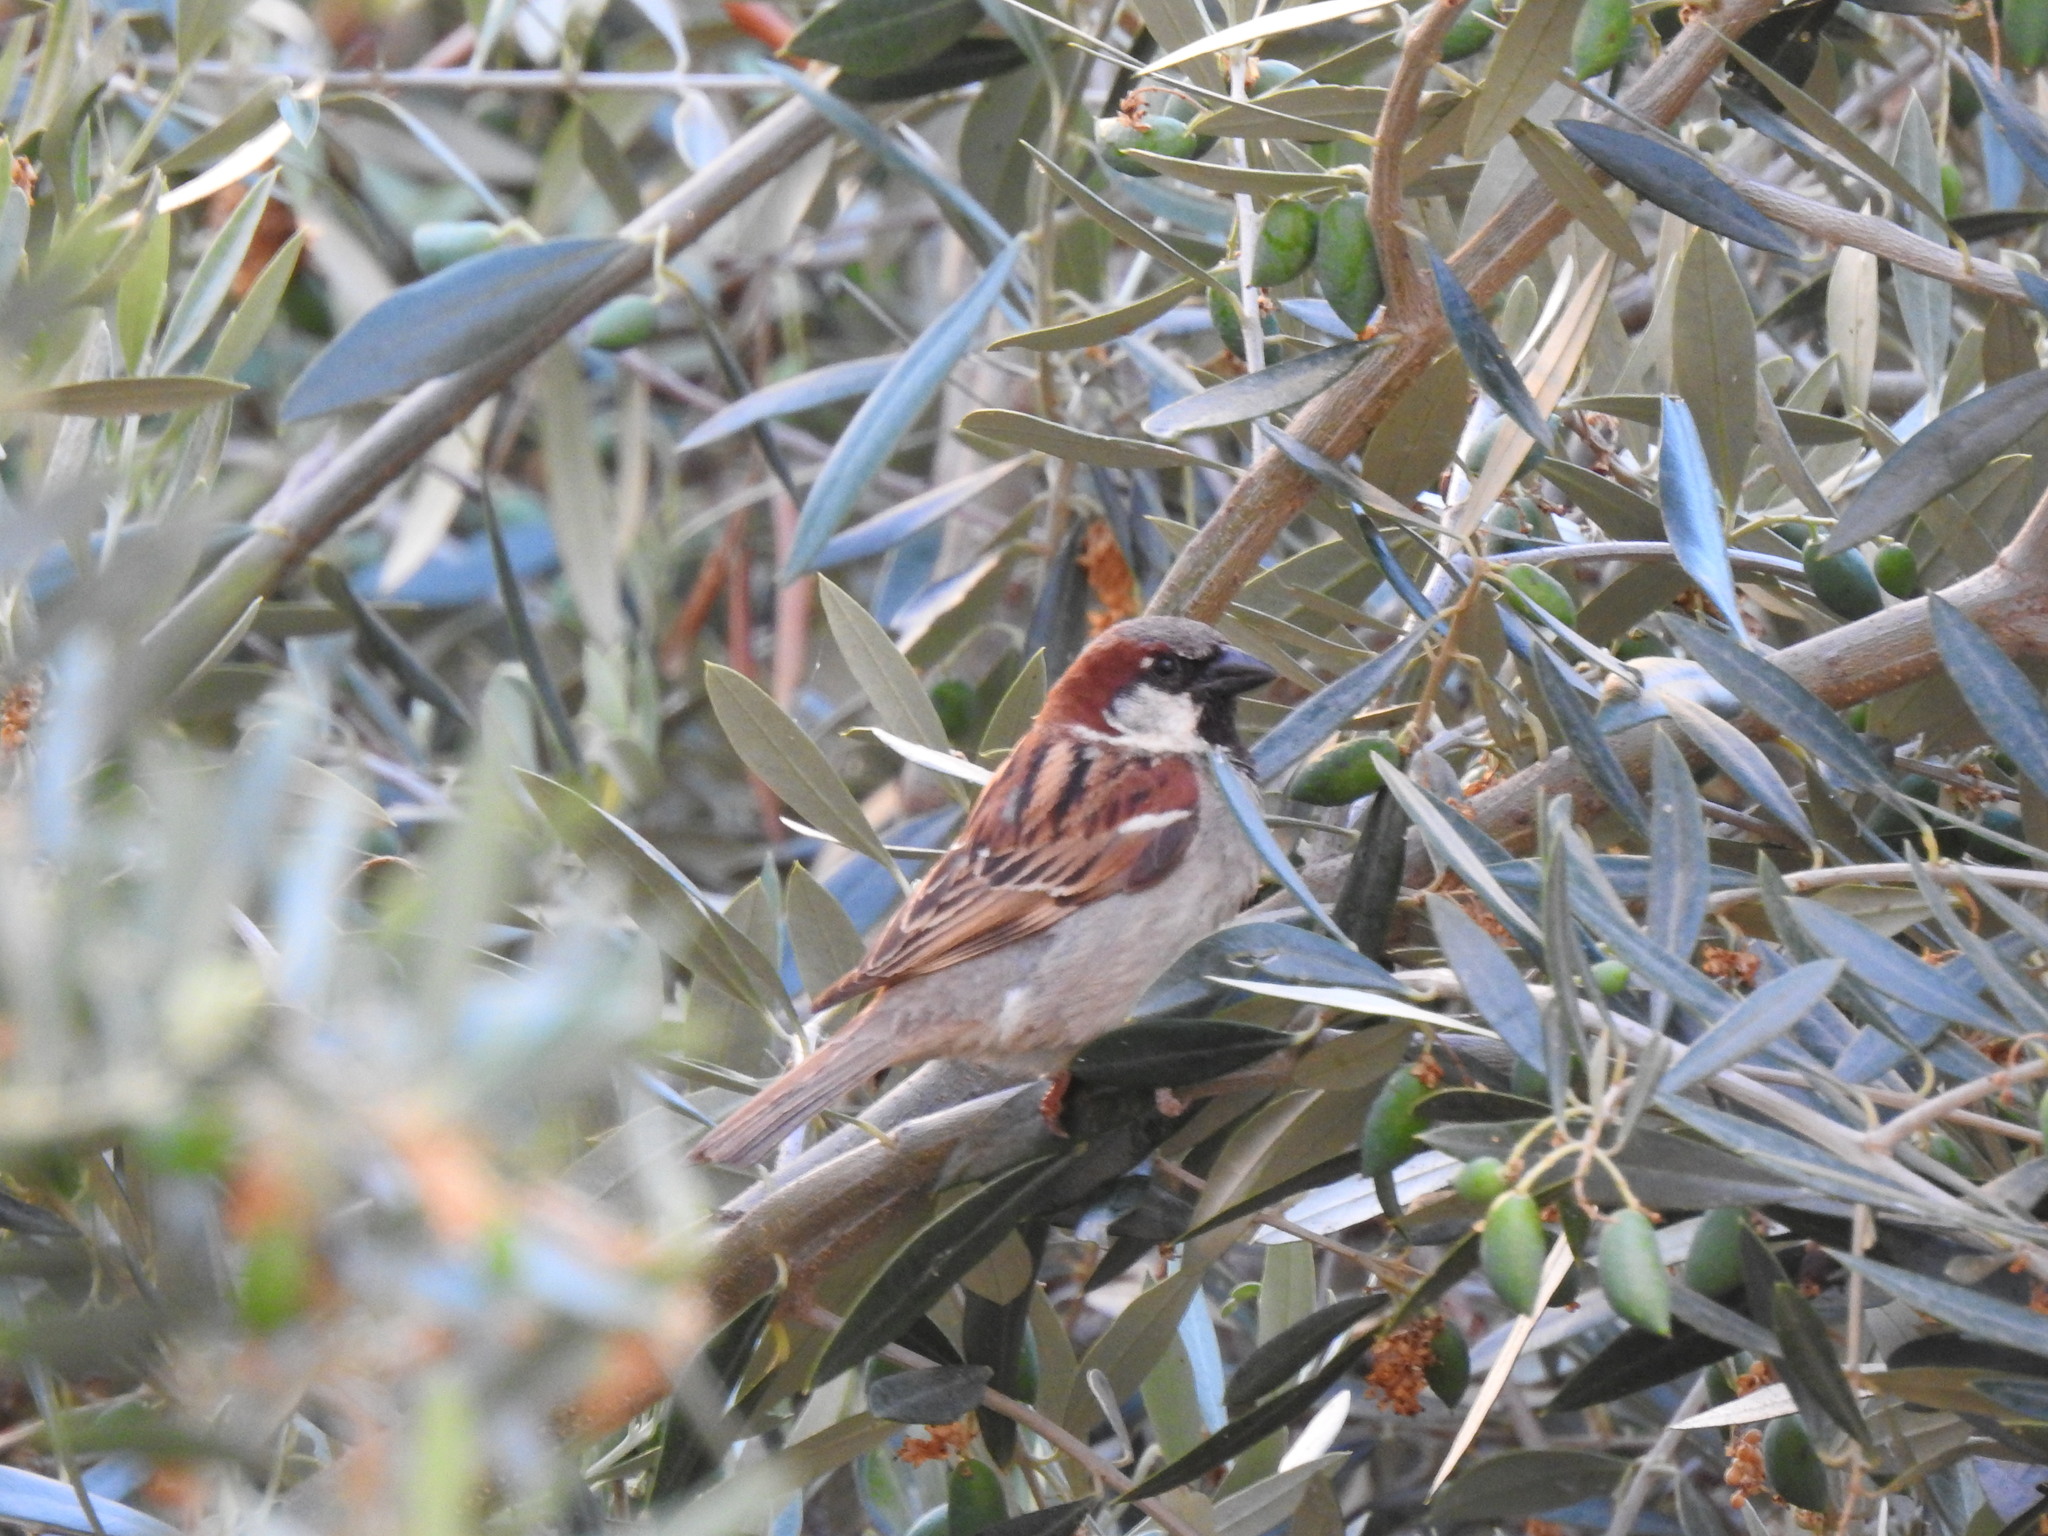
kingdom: Animalia
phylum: Chordata
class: Aves
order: Passeriformes
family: Passeridae
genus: Passer
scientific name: Passer domesticus
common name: House sparrow
